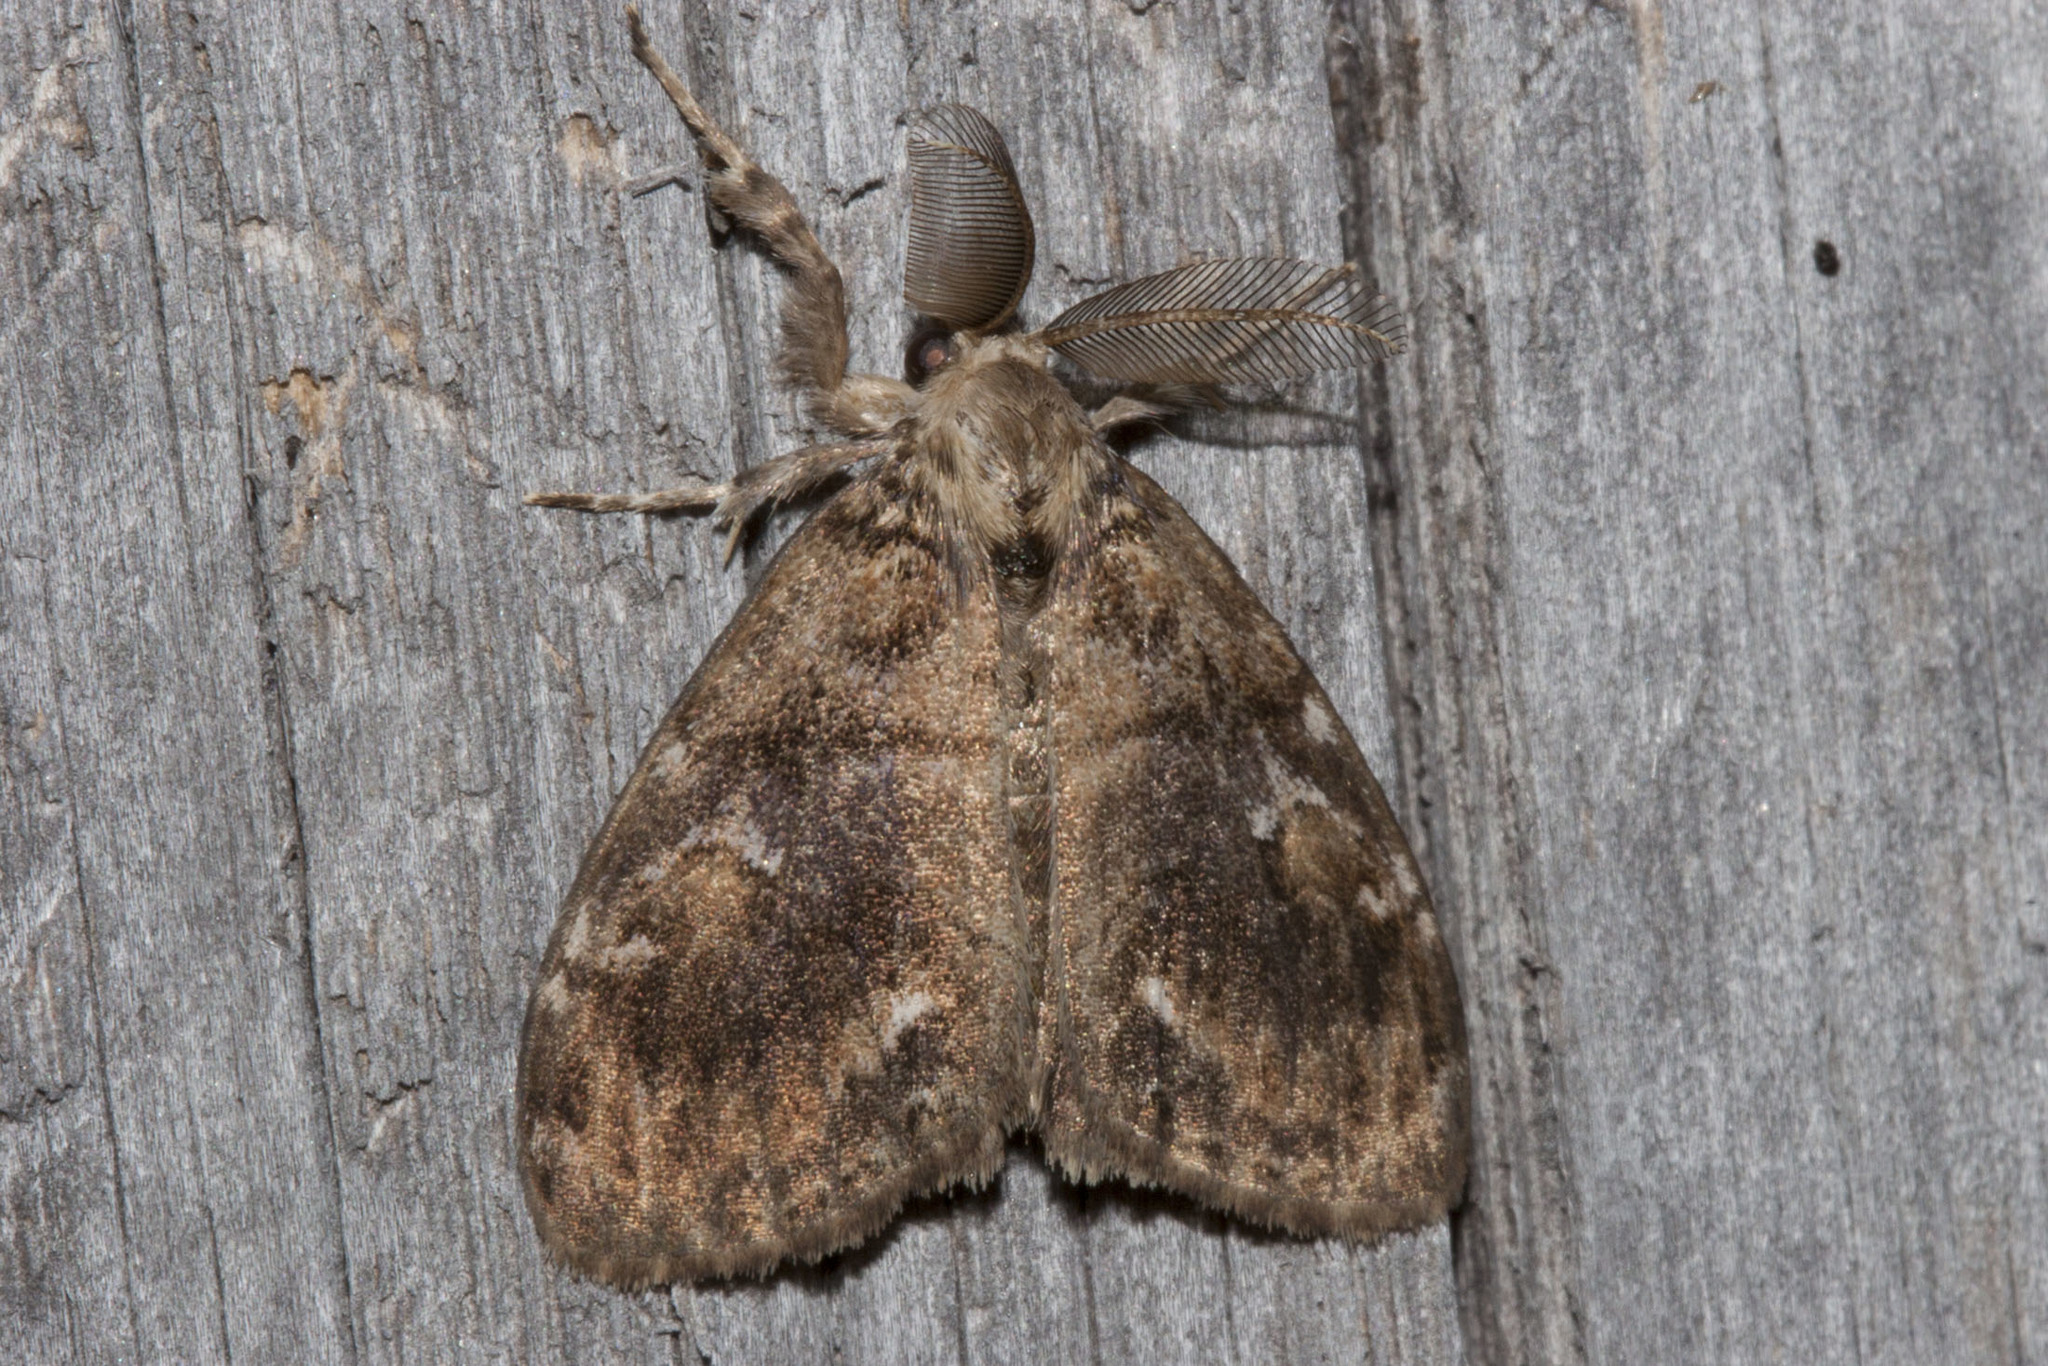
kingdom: Animalia
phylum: Arthropoda
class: Insecta
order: Lepidoptera
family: Erebidae
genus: Orgyia
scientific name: Orgyia definita
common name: Definite tussock moth
